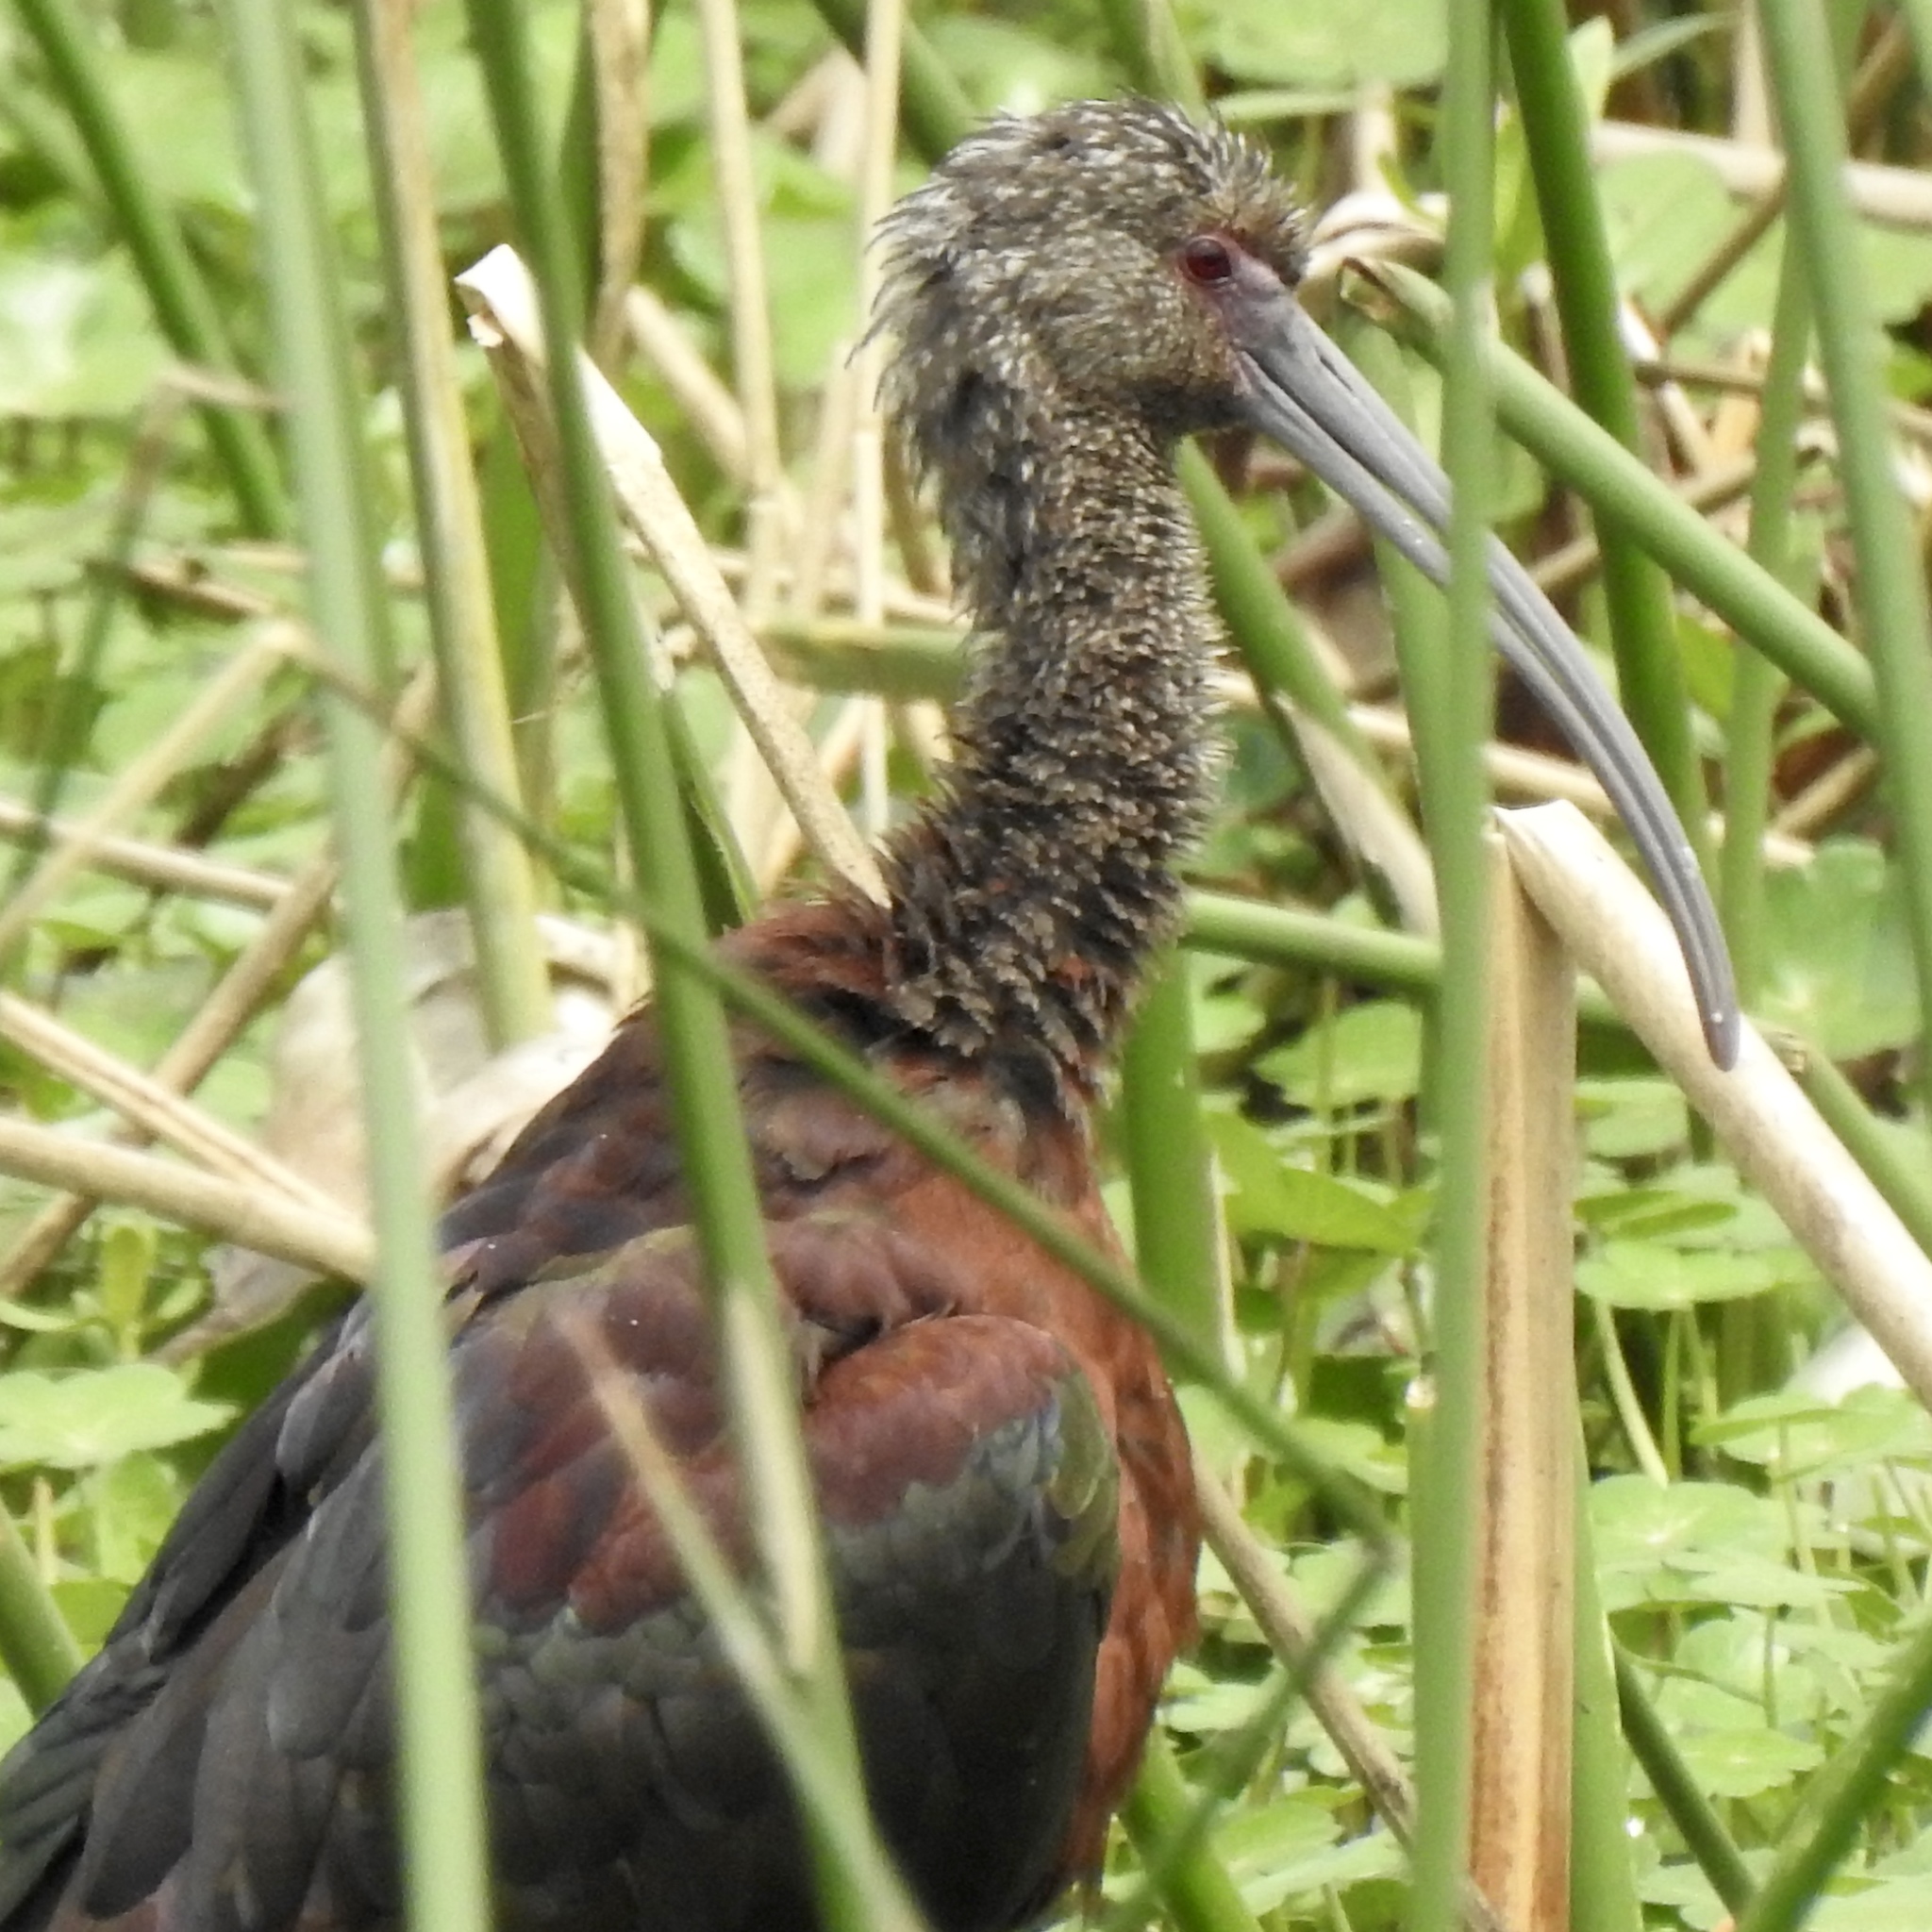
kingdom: Animalia
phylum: Chordata
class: Aves
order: Pelecaniformes
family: Threskiornithidae
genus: Plegadis
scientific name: Plegadis chihi
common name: White-faced ibis
